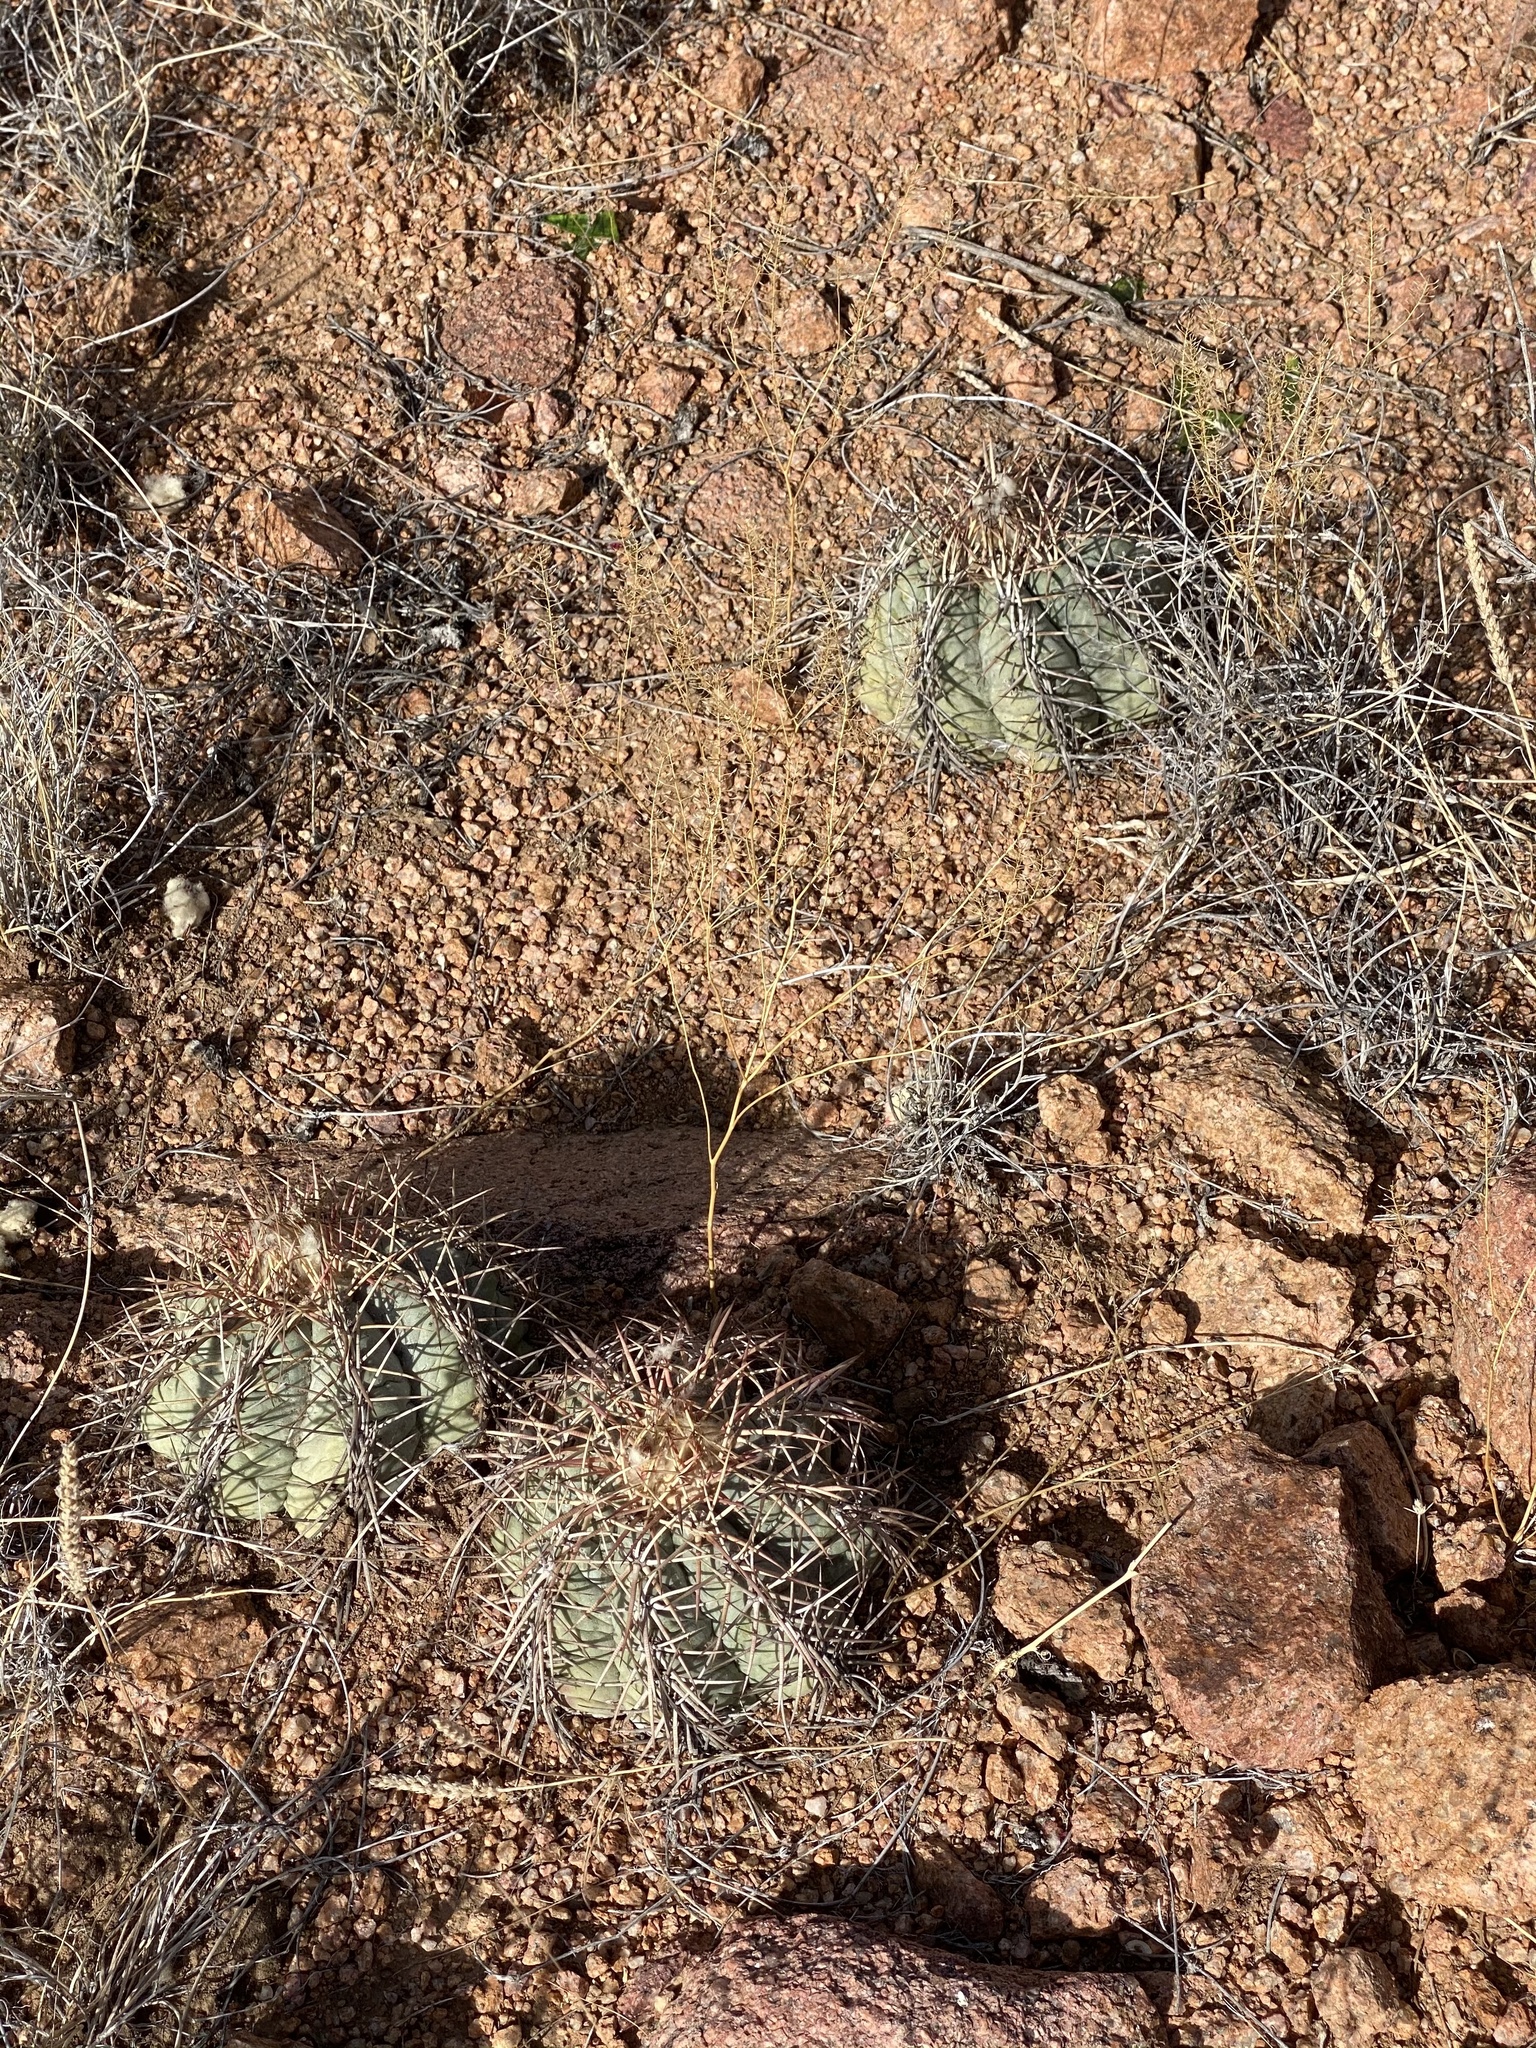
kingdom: Plantae
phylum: Tracheophyta
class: Magnoliopsida
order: Caryophyllales
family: Cactaceae
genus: Echinocactus
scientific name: Echinocactus horizonthalonius
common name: Devilshead
